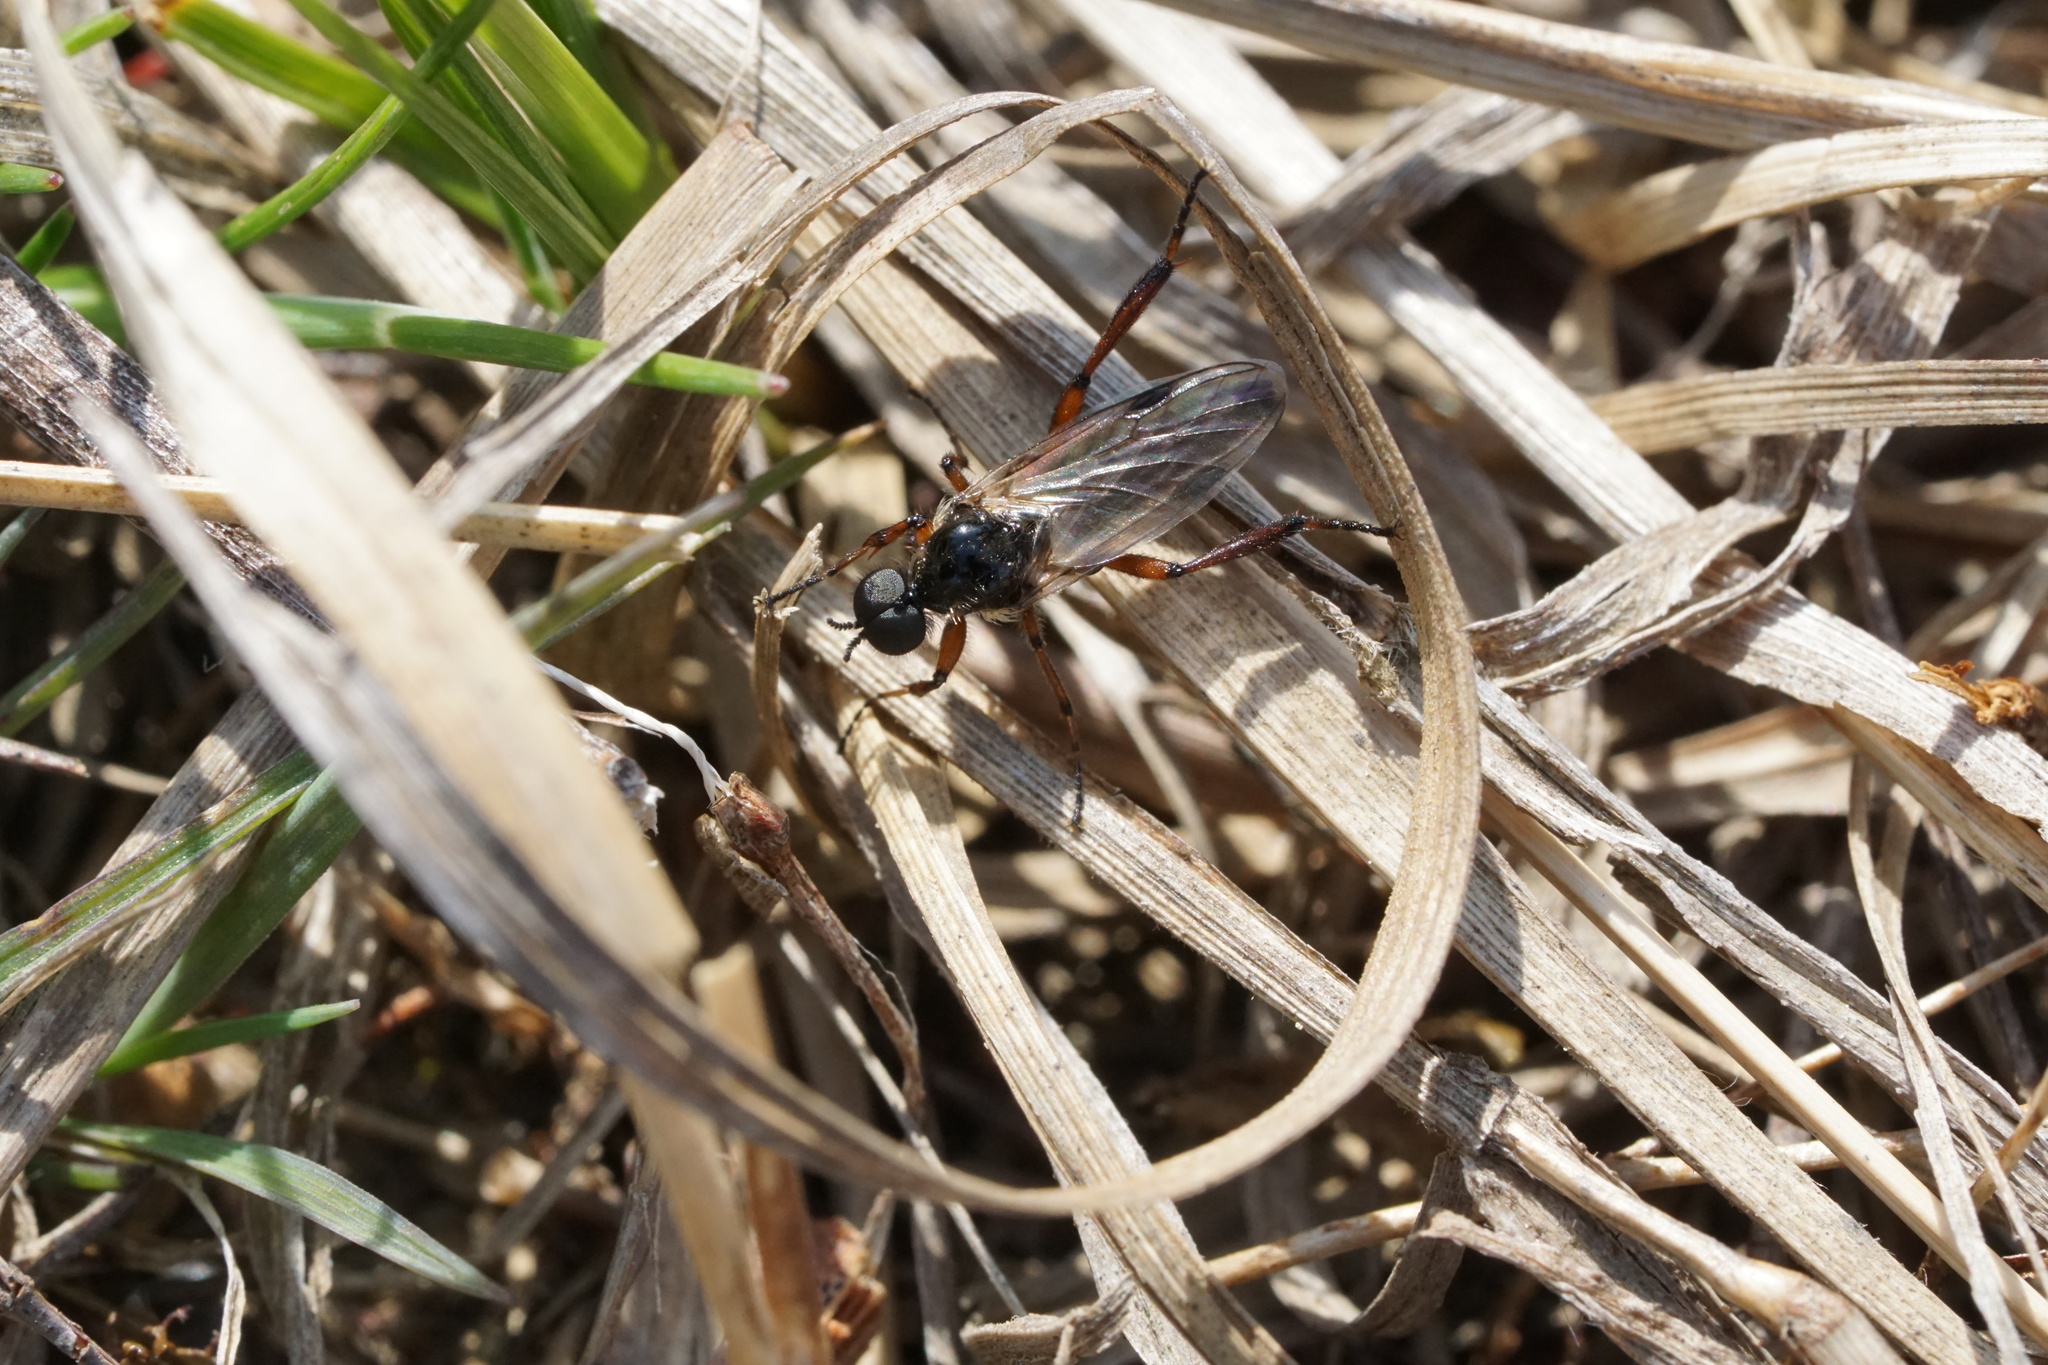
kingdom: Animalia
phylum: Arthropoda
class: Insecta
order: Diptera
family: Bibionidae
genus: Bibio
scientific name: Bibio
